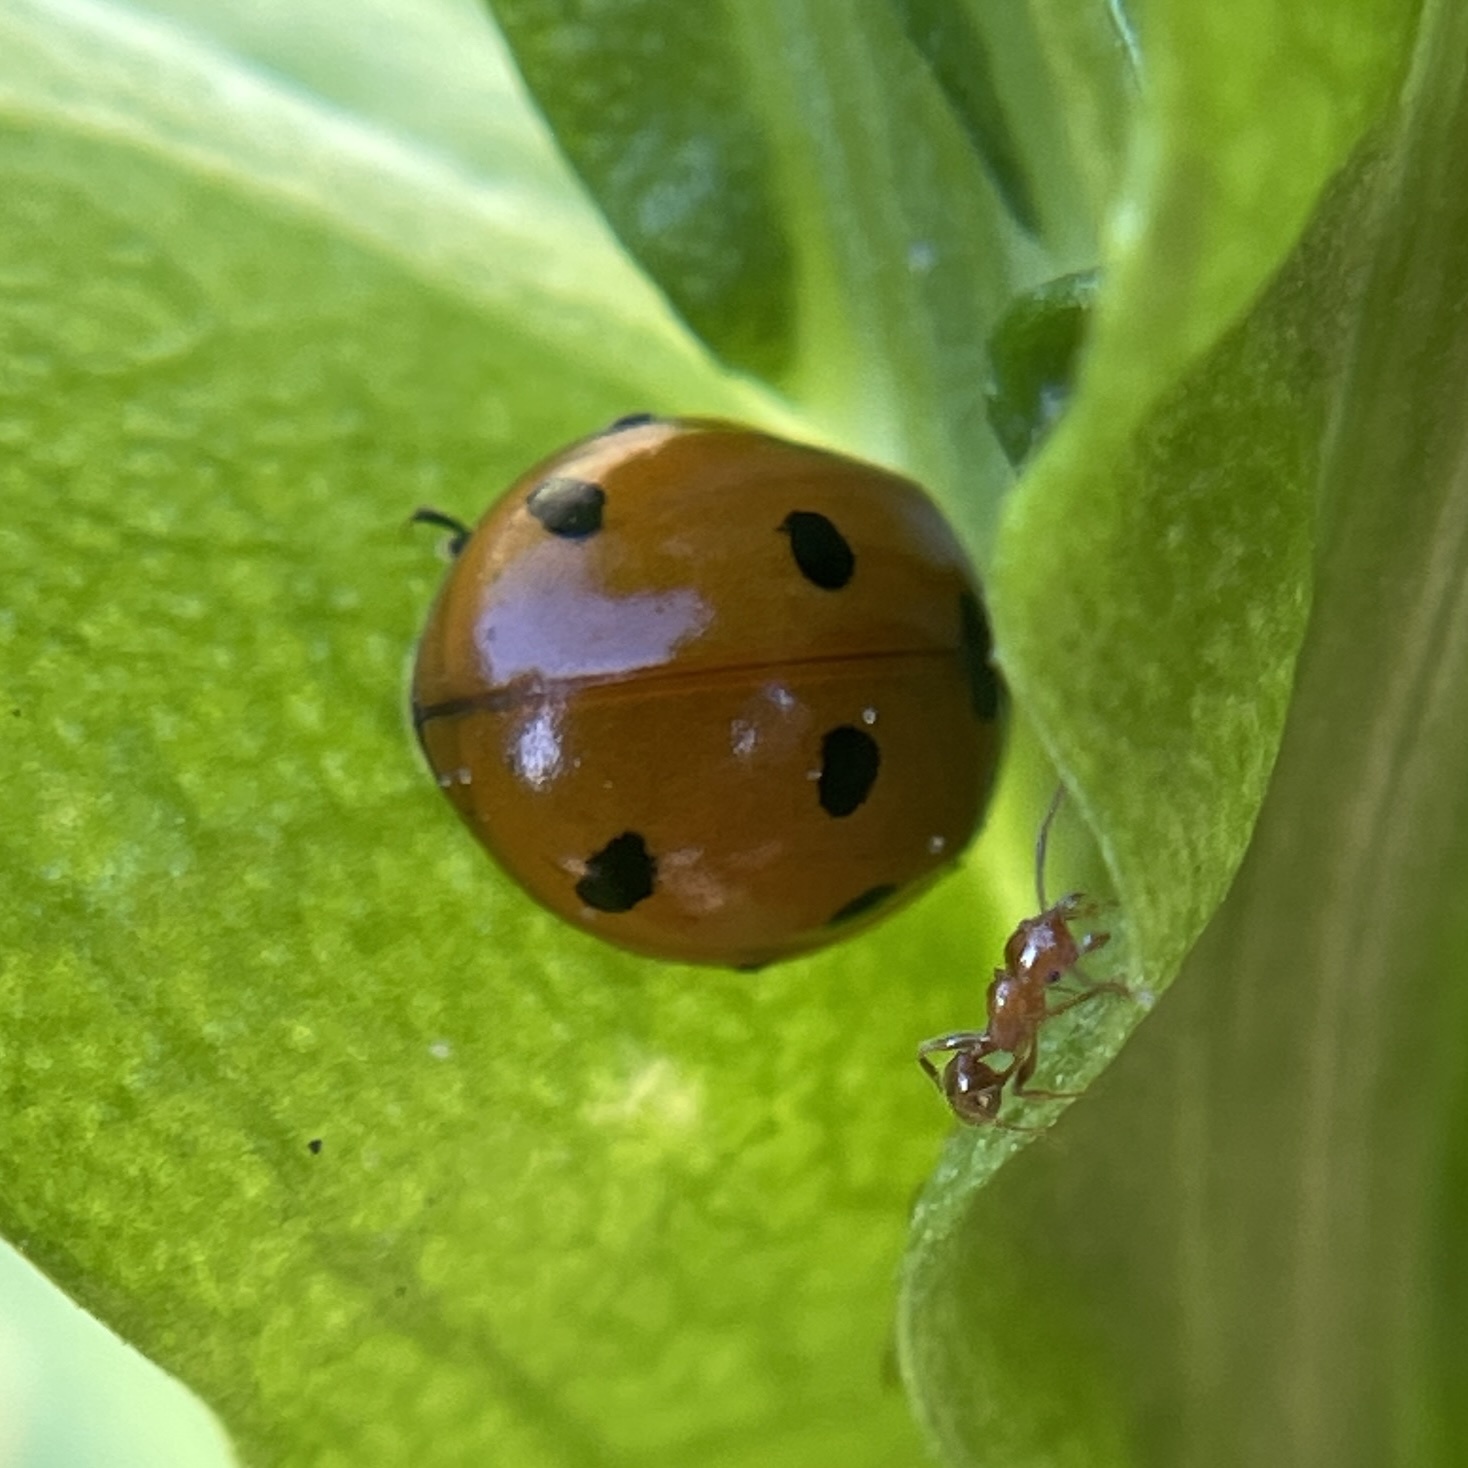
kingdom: Animalia
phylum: Arthropoda
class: Insecta
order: Coleoptera
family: Coccinellidae
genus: Coccinella
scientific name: Coccinella septempunctata
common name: Sevenspotted lady beetle
